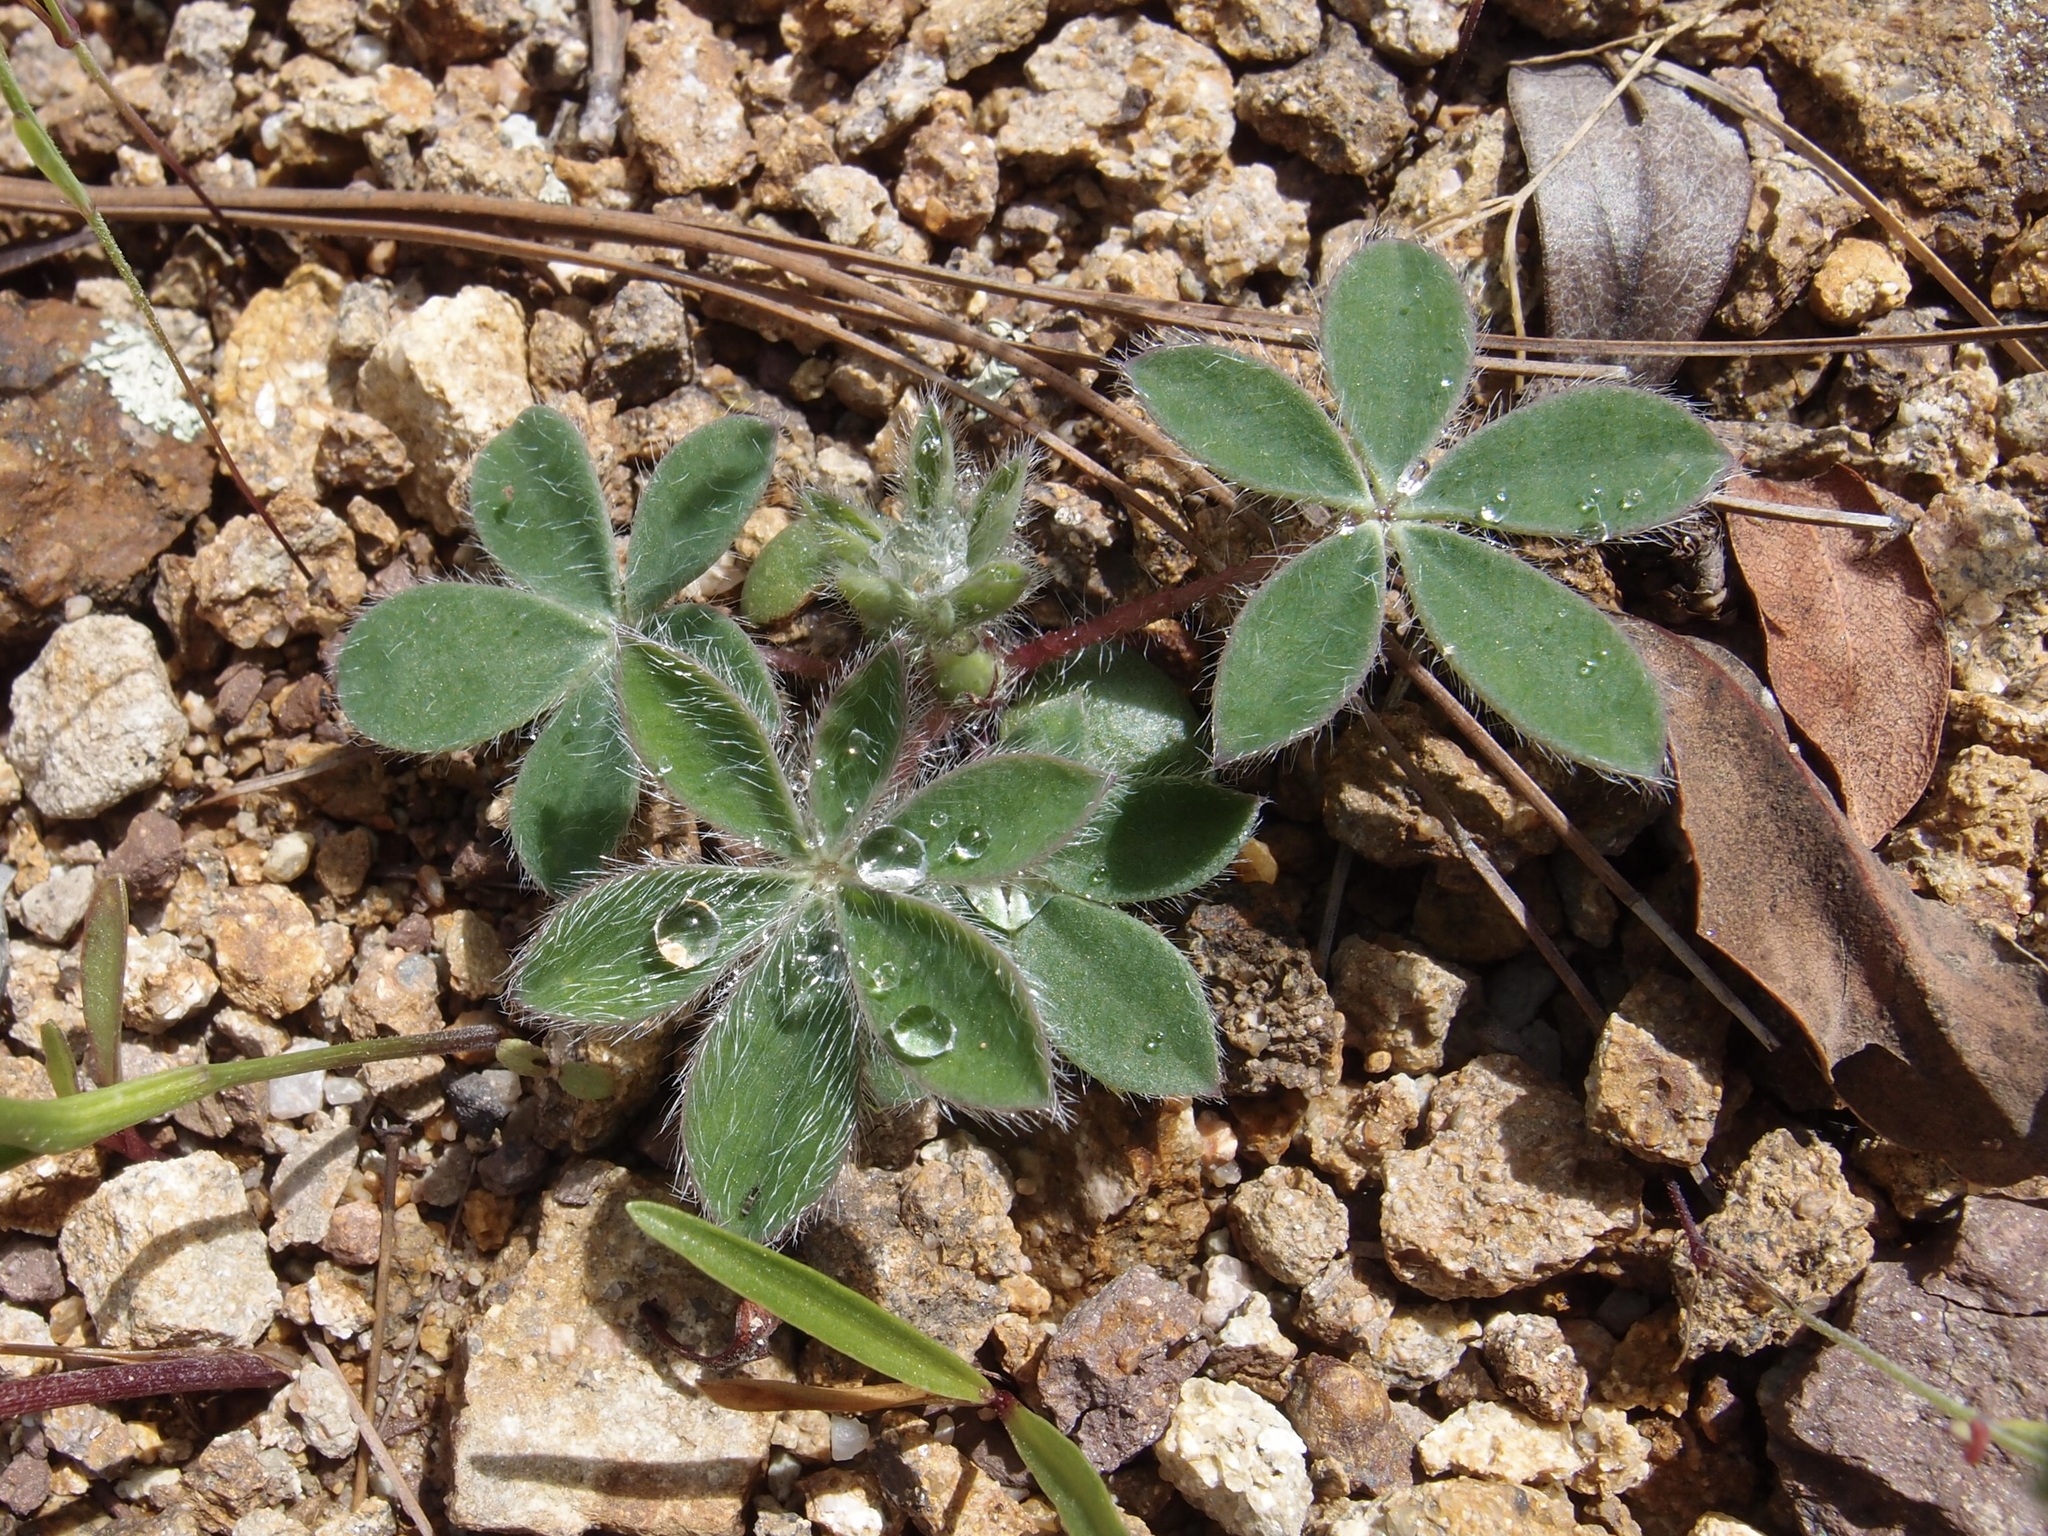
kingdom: Plantae
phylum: Tracheophyta
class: Magnoliopsida
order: Fabales
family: Fabaceae
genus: Lupinus
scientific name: Lupinus huachucanus
